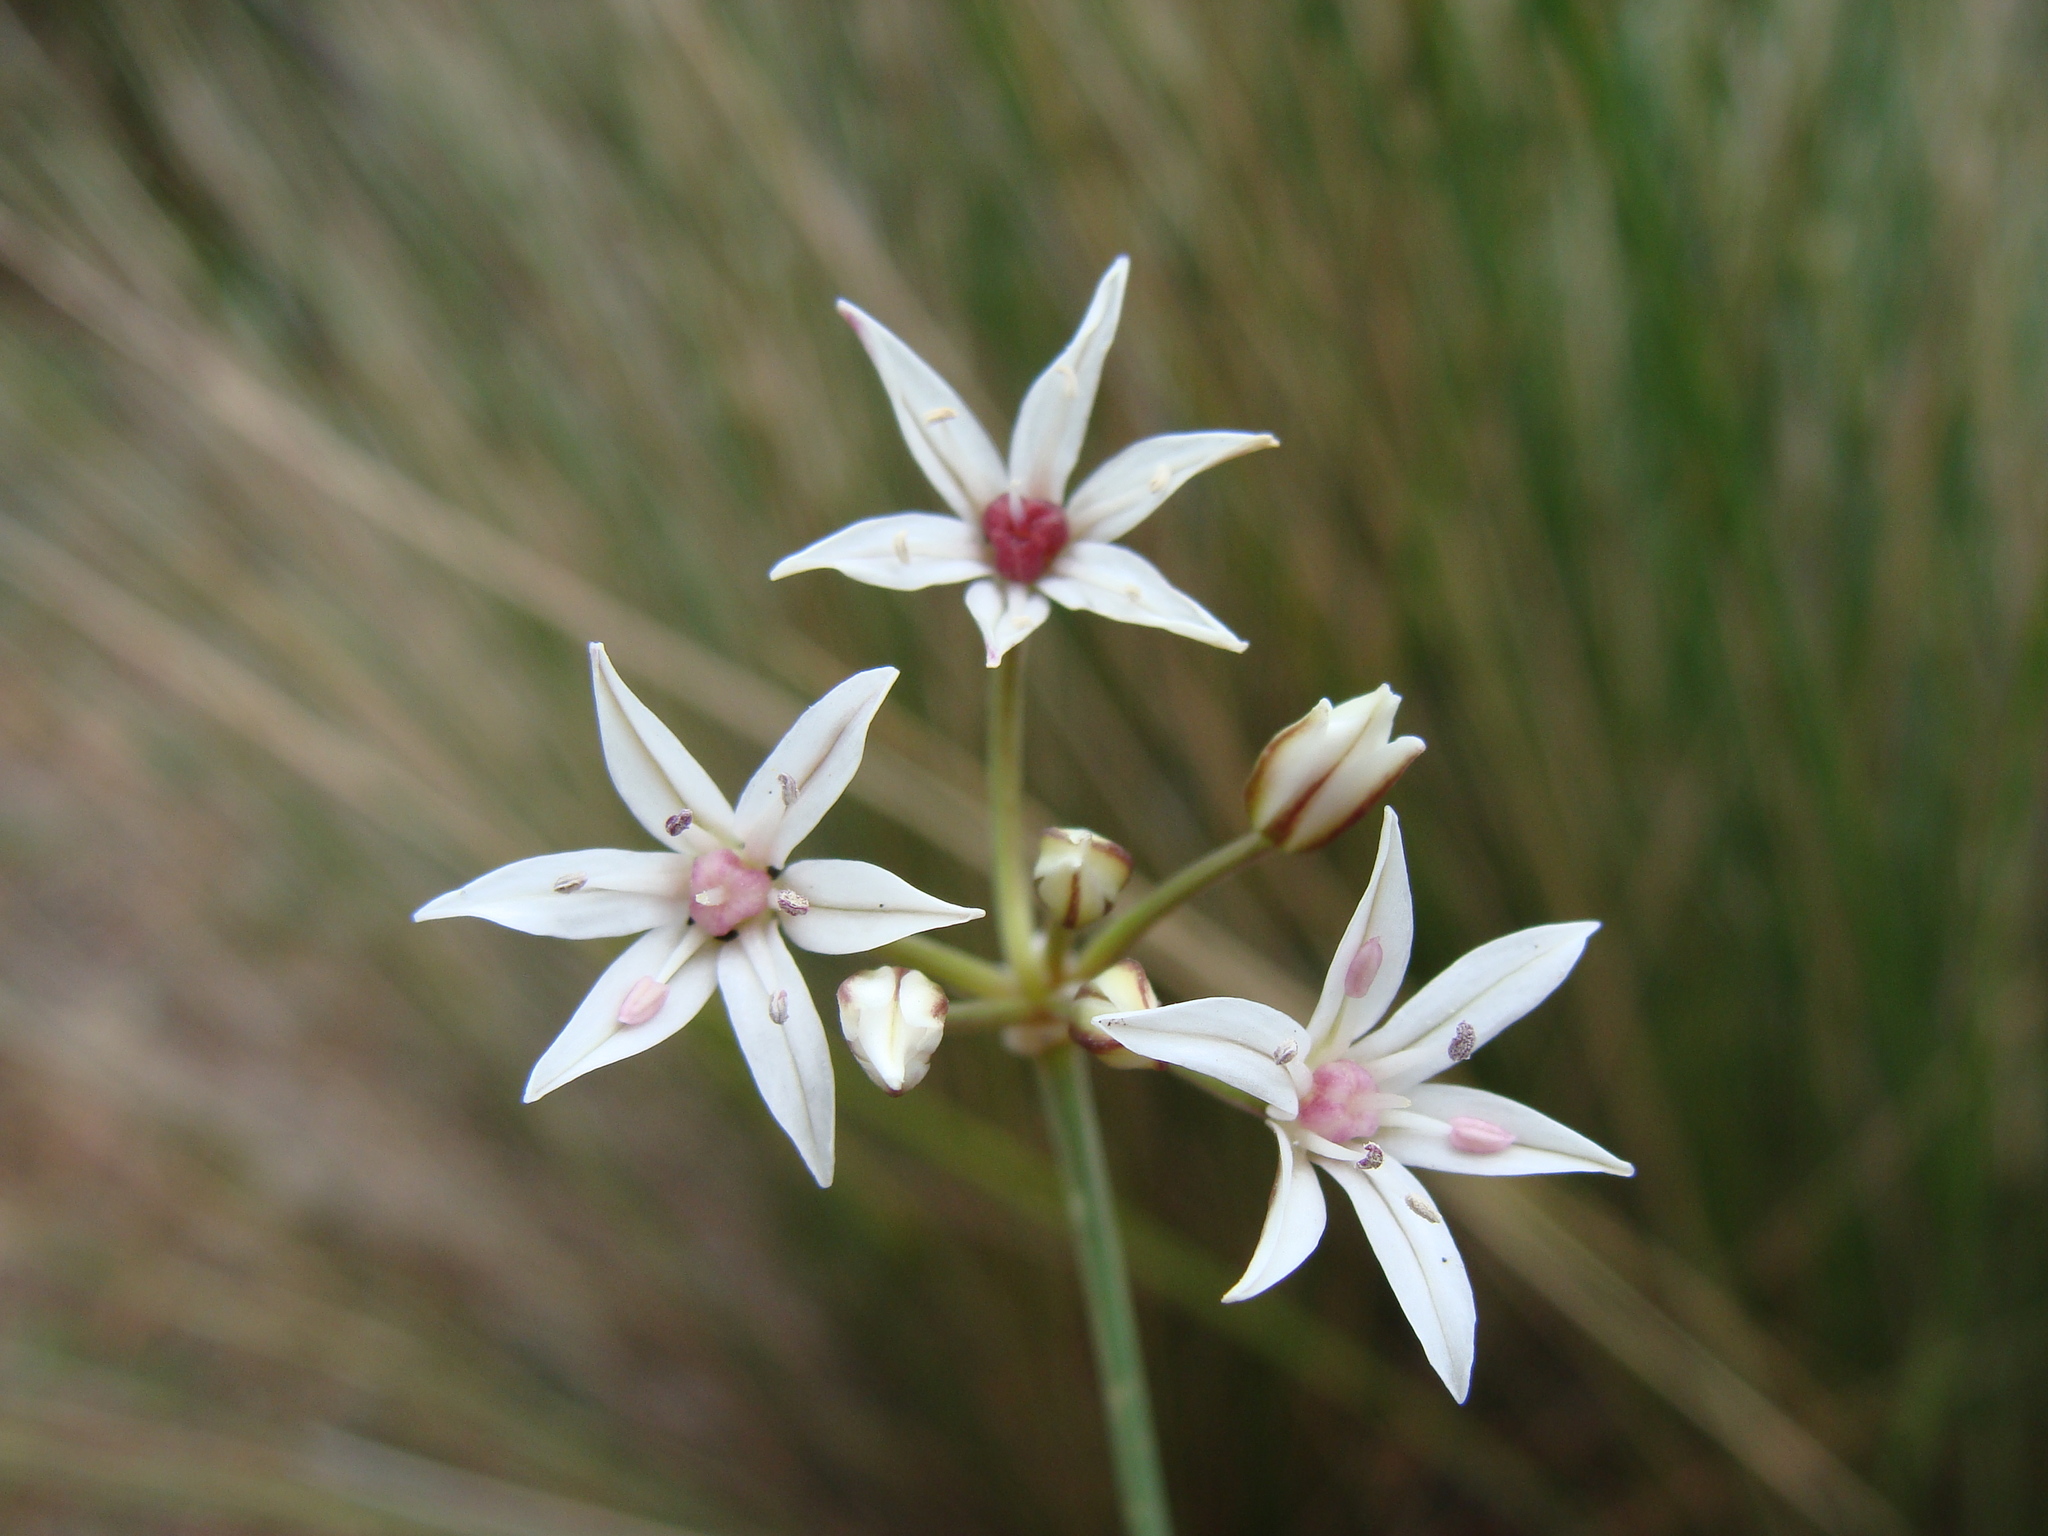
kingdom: Plantae
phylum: Tracheophyta
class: Liliopsida
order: Asparagales
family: Amaryllidaceae
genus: Allium
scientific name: Allium glandulosum
